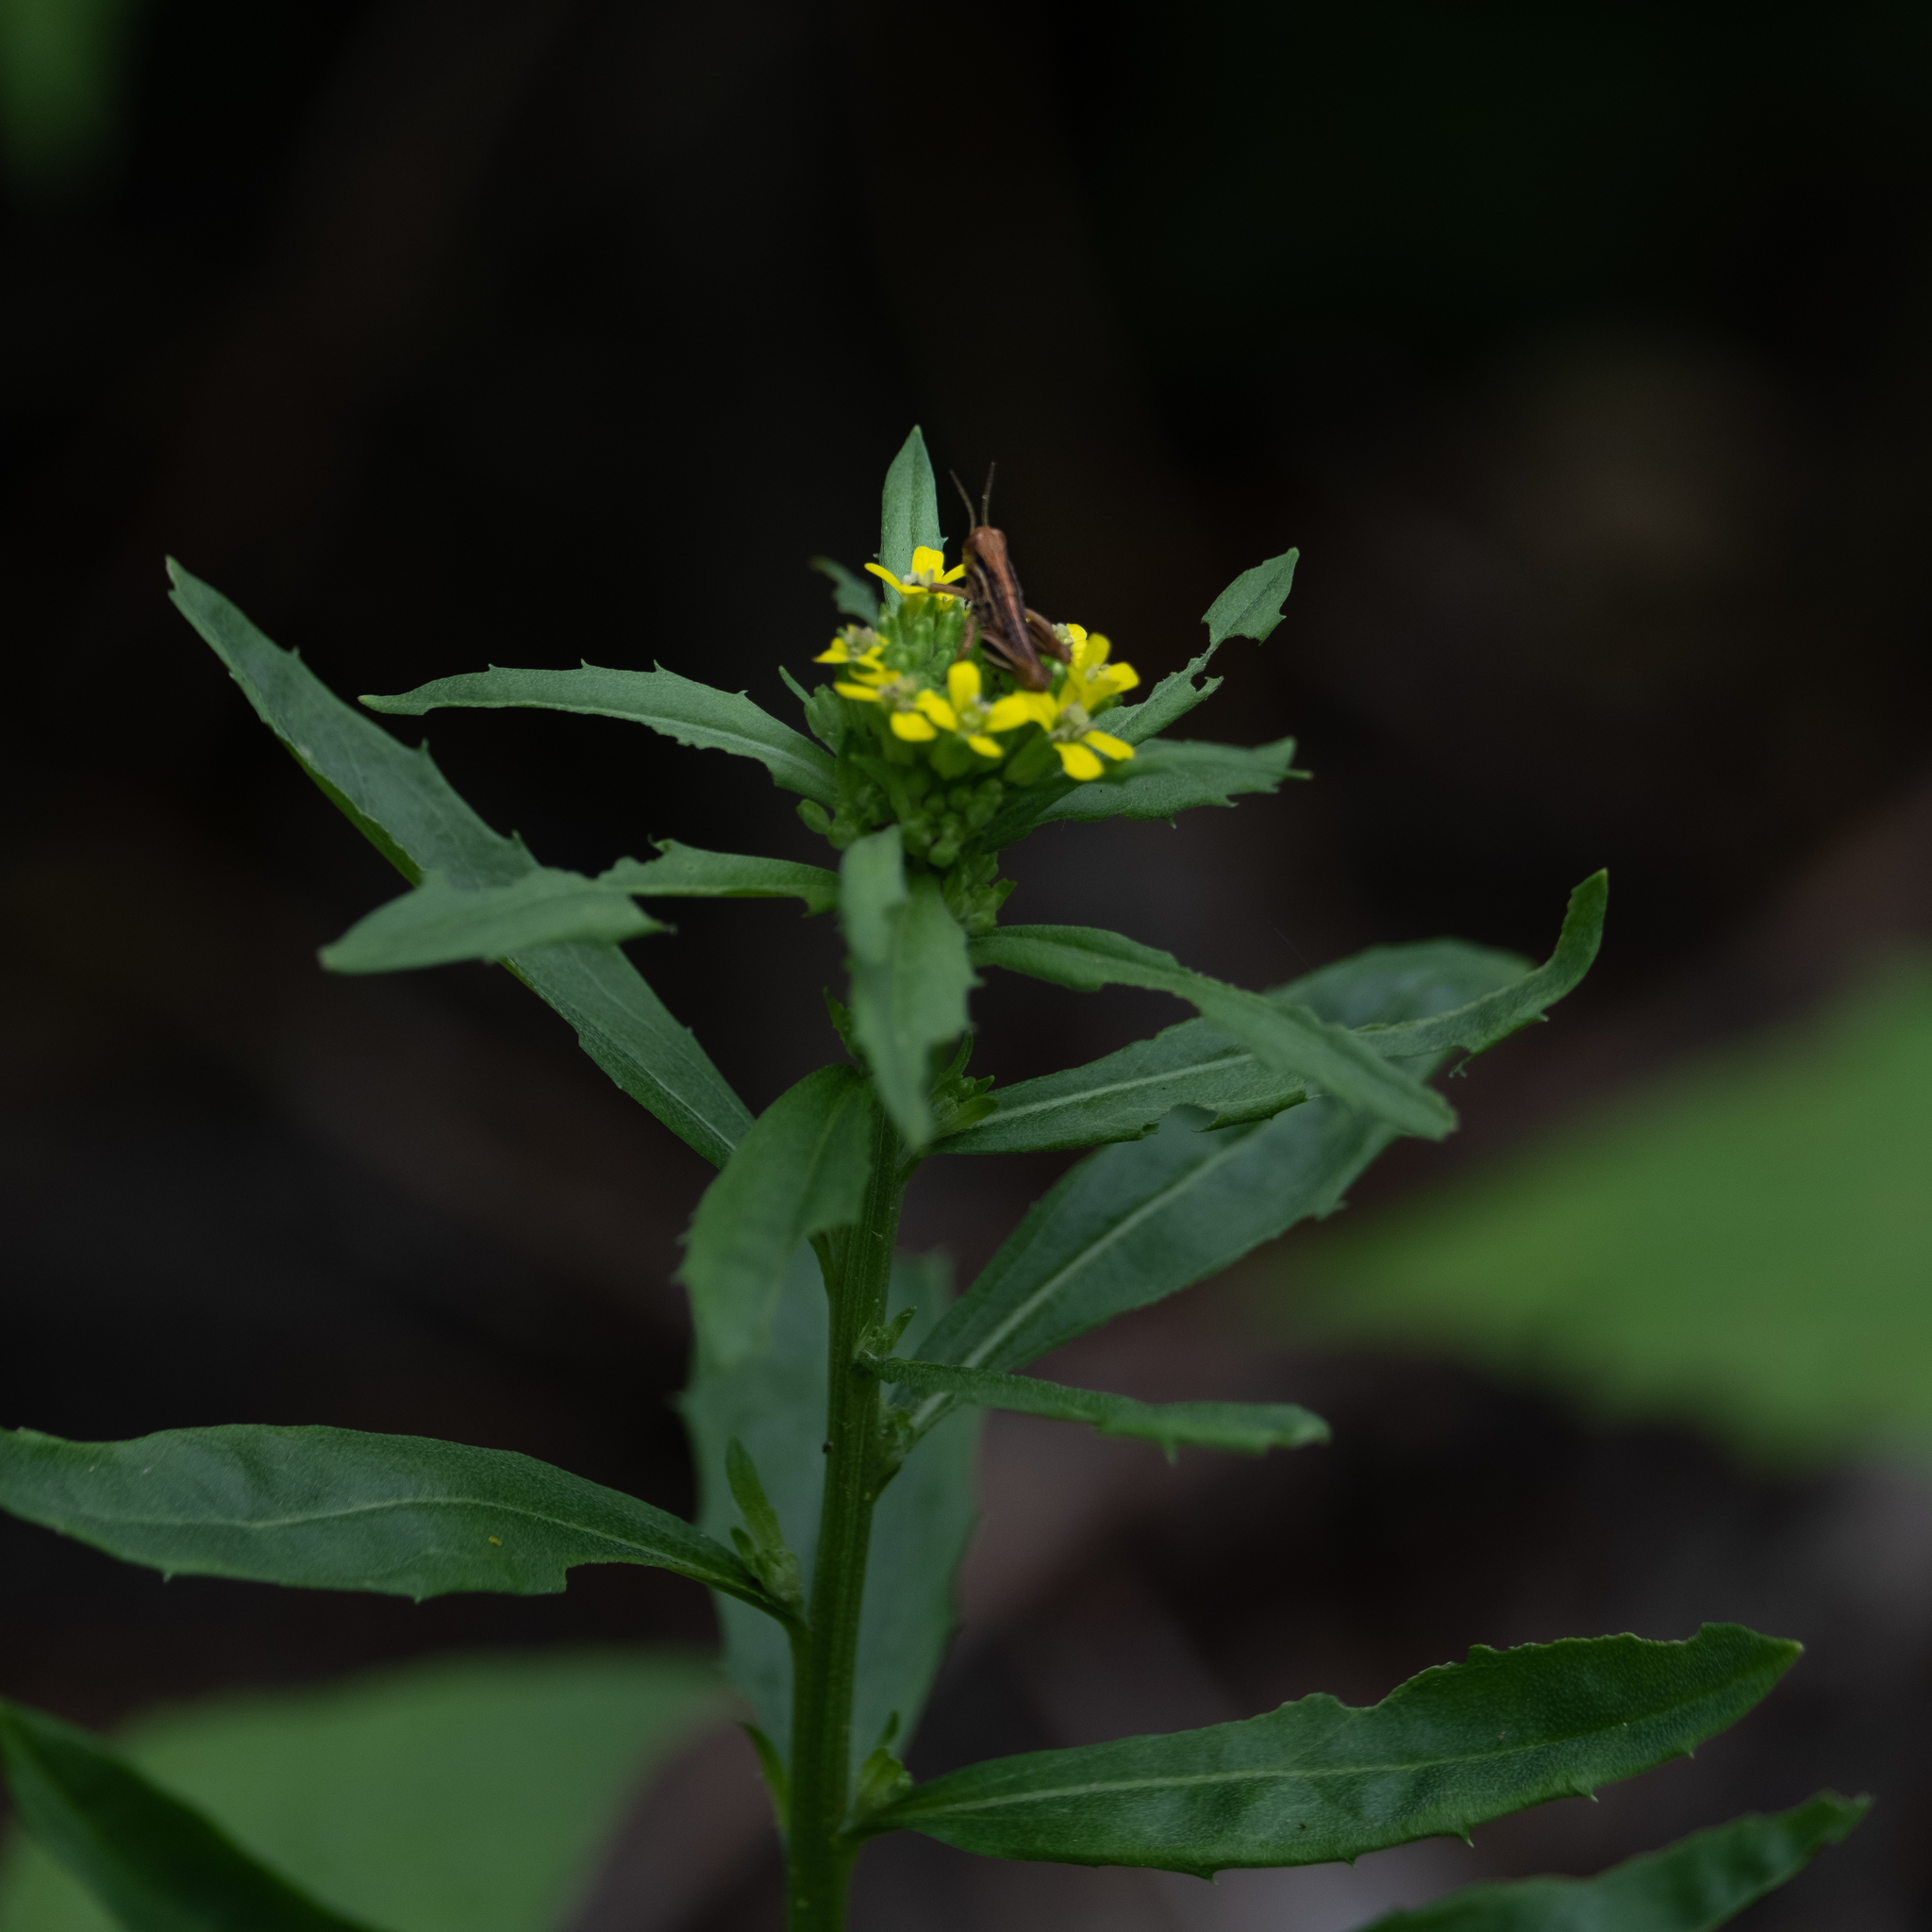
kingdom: Plantae
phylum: Tracheophyta
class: Magnoliopsida
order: Brassicales
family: Brassicaceae
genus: Erysimum
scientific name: Erysimum cheiranthoides
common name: Treacle mustard
